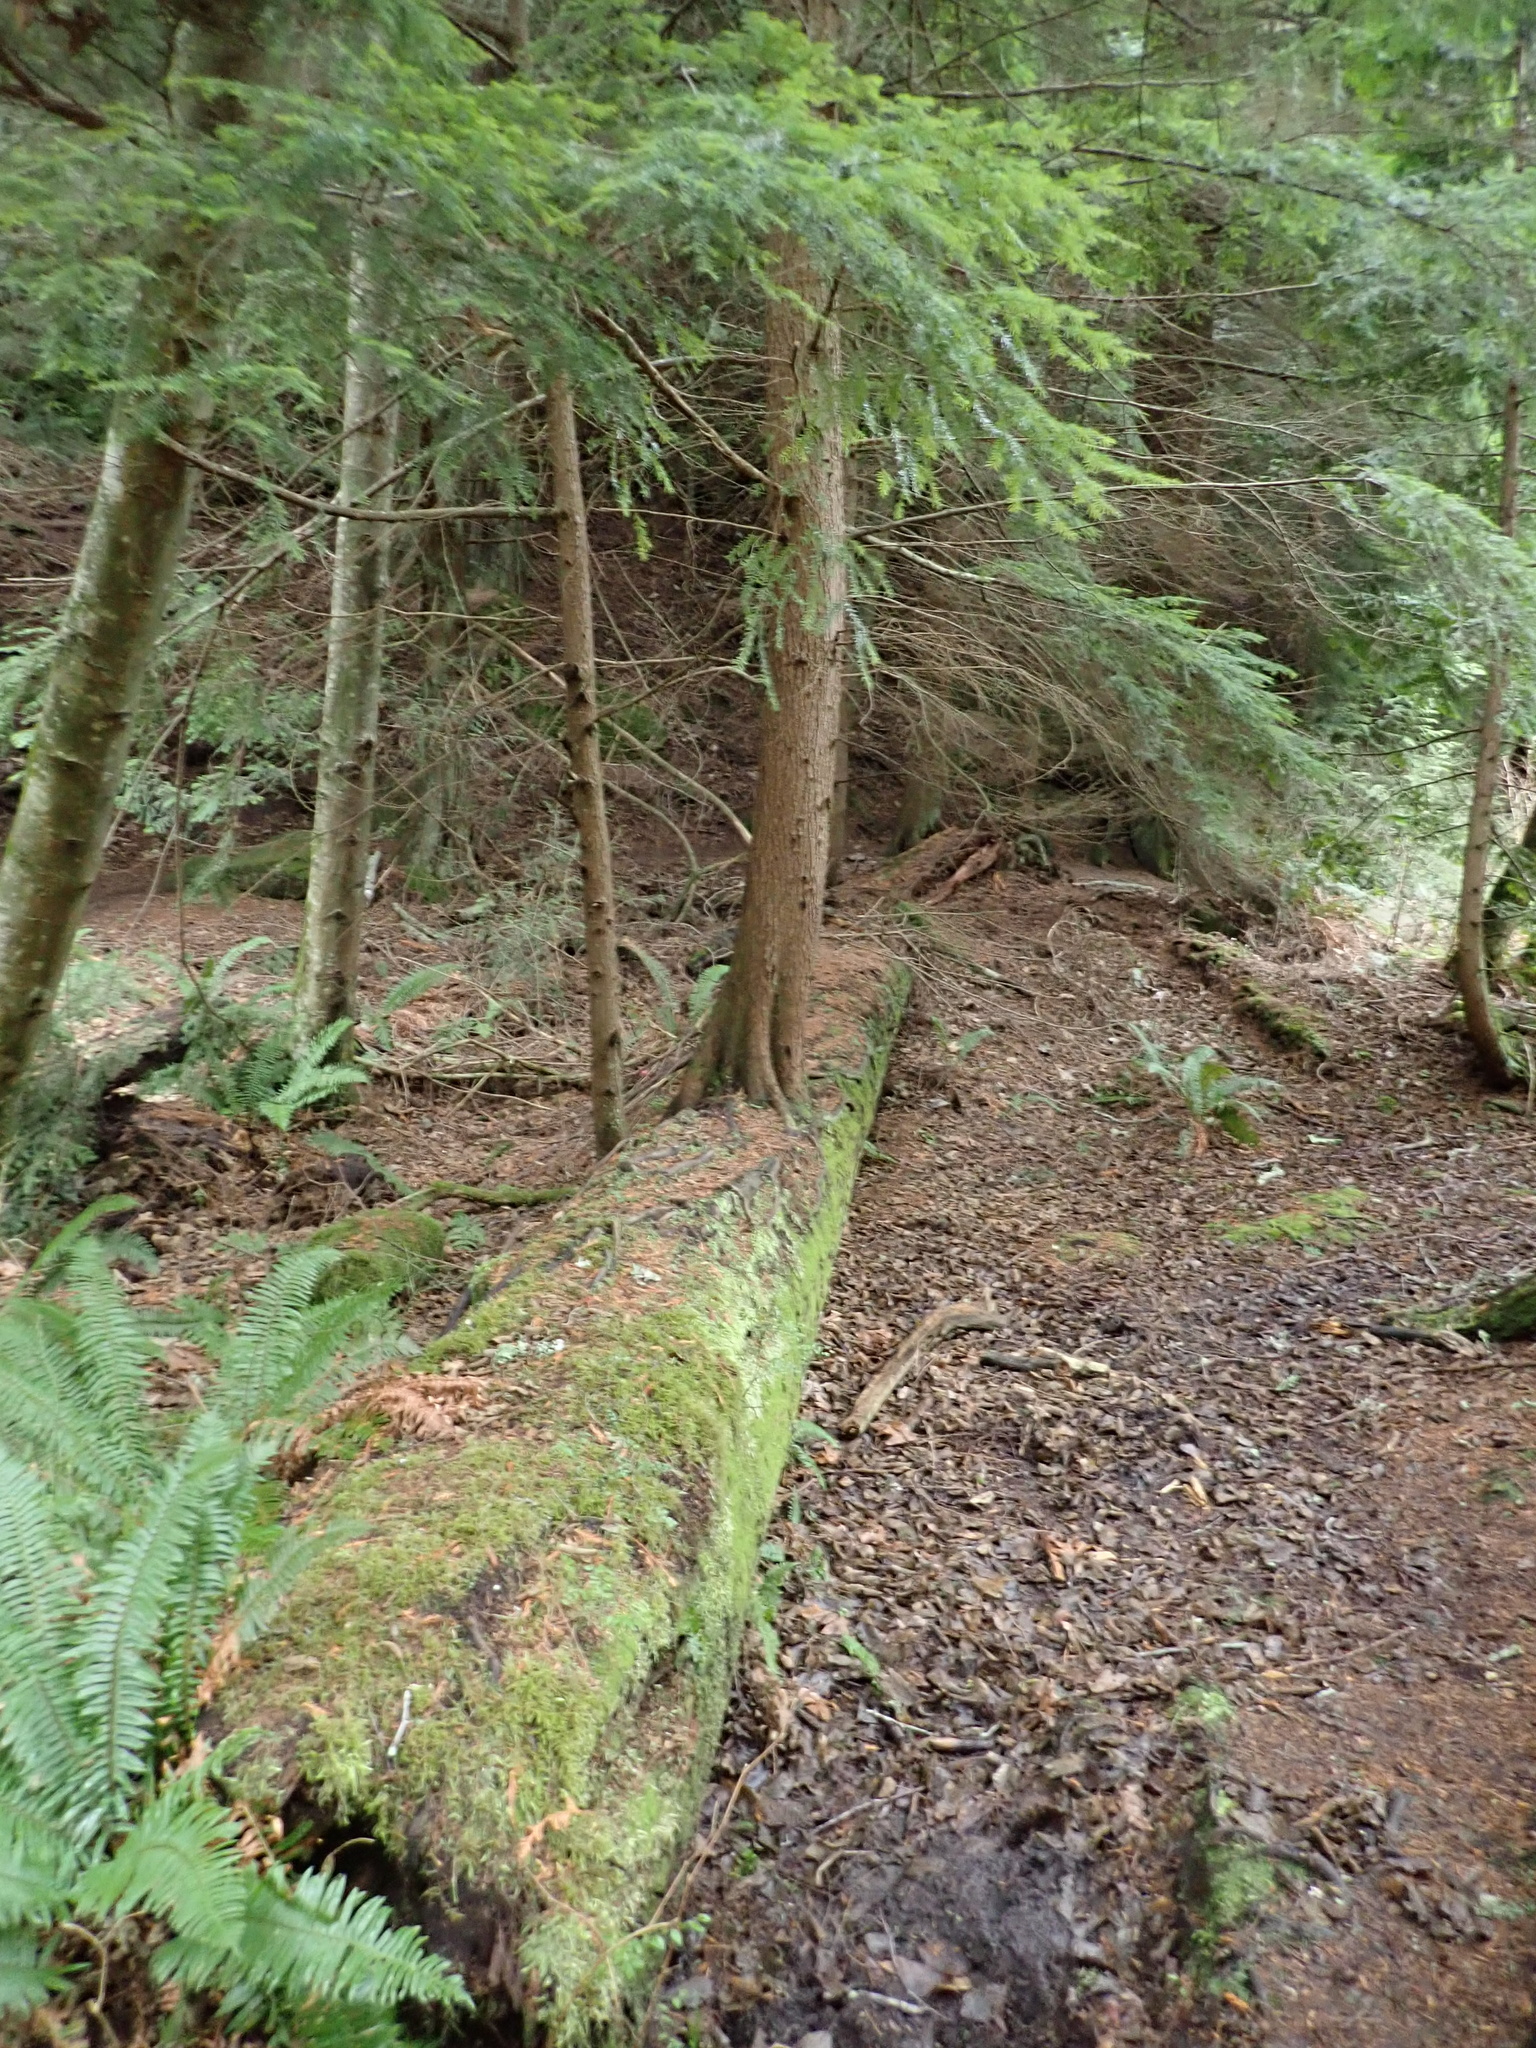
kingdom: Plantae
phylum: Tracheophyta
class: Pinopsida
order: Pinales
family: Pinaceae
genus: Tsuga
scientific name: Tsuga heterophylla
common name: Western hemlock
